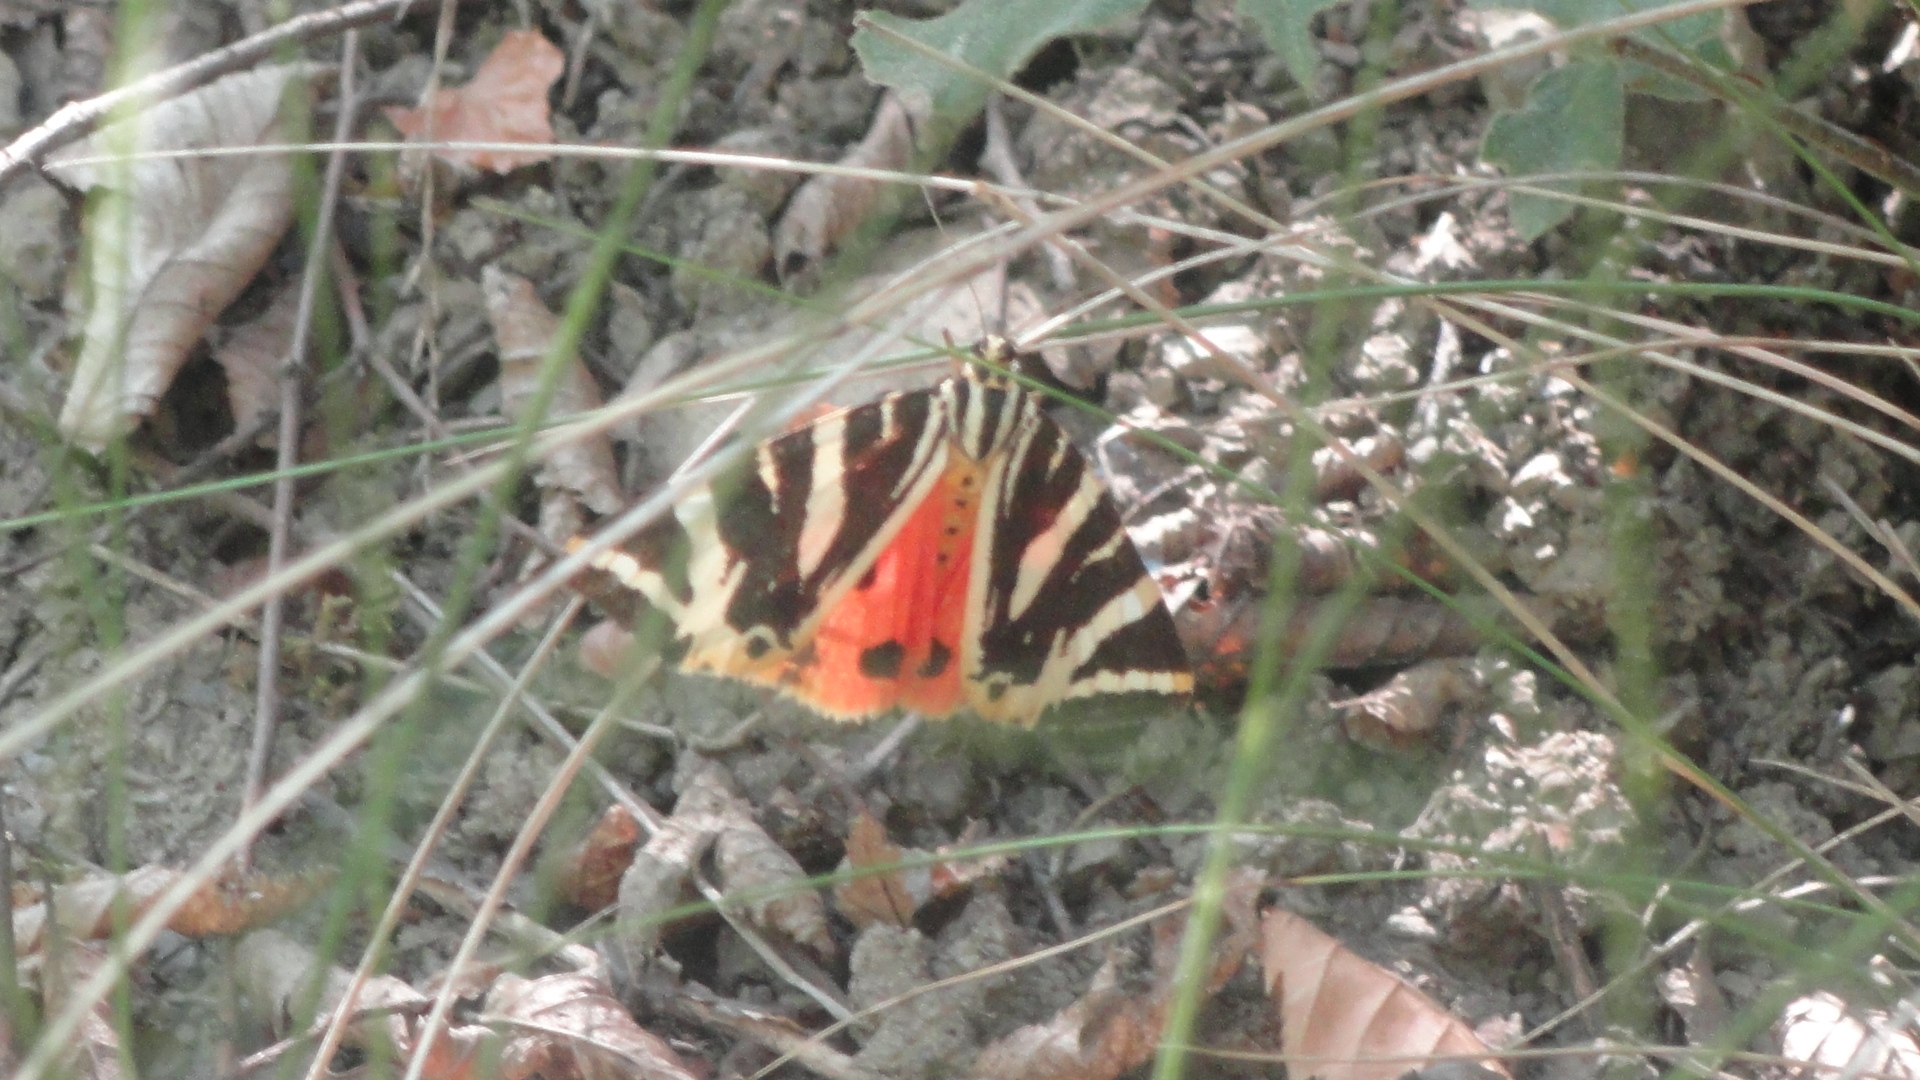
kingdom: Animalia
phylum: Arthropoda
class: Insecta
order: Lepidoptera
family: Erebidae
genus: Euplagia
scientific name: Euplagia quadripunctaria
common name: Jersey tiger
